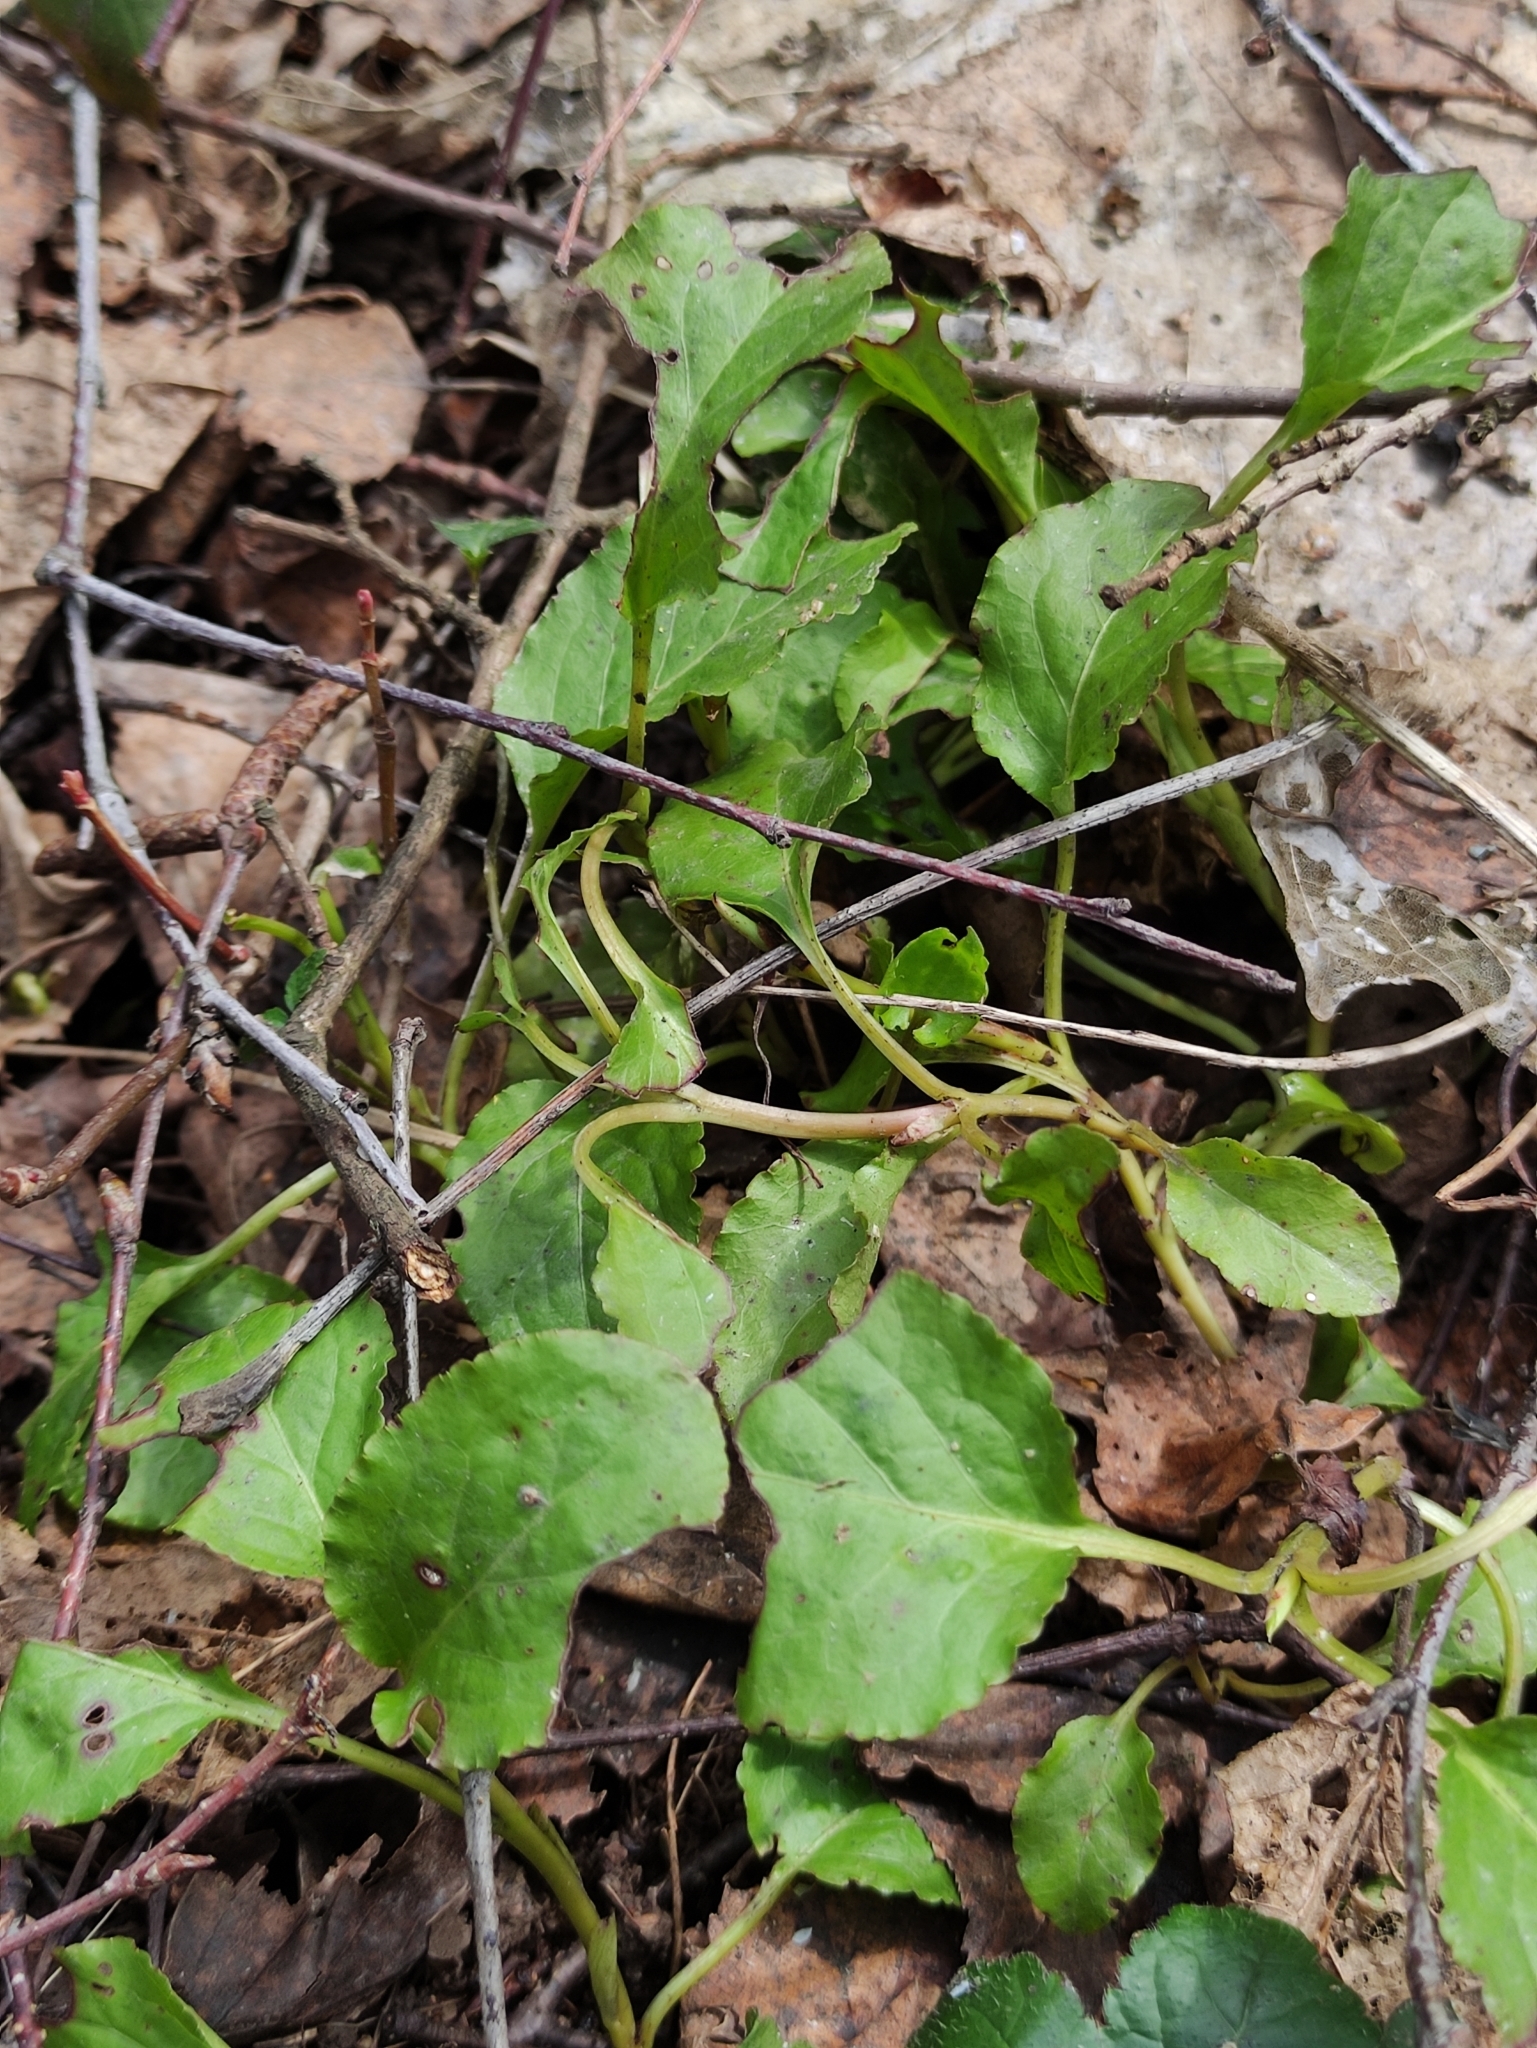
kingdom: Plantae
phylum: Tracheophyta
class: Magnoliopsida
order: Ericales
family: Ericaceae
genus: Orthilia
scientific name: Orthilia secunda
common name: One-sided orthilia
